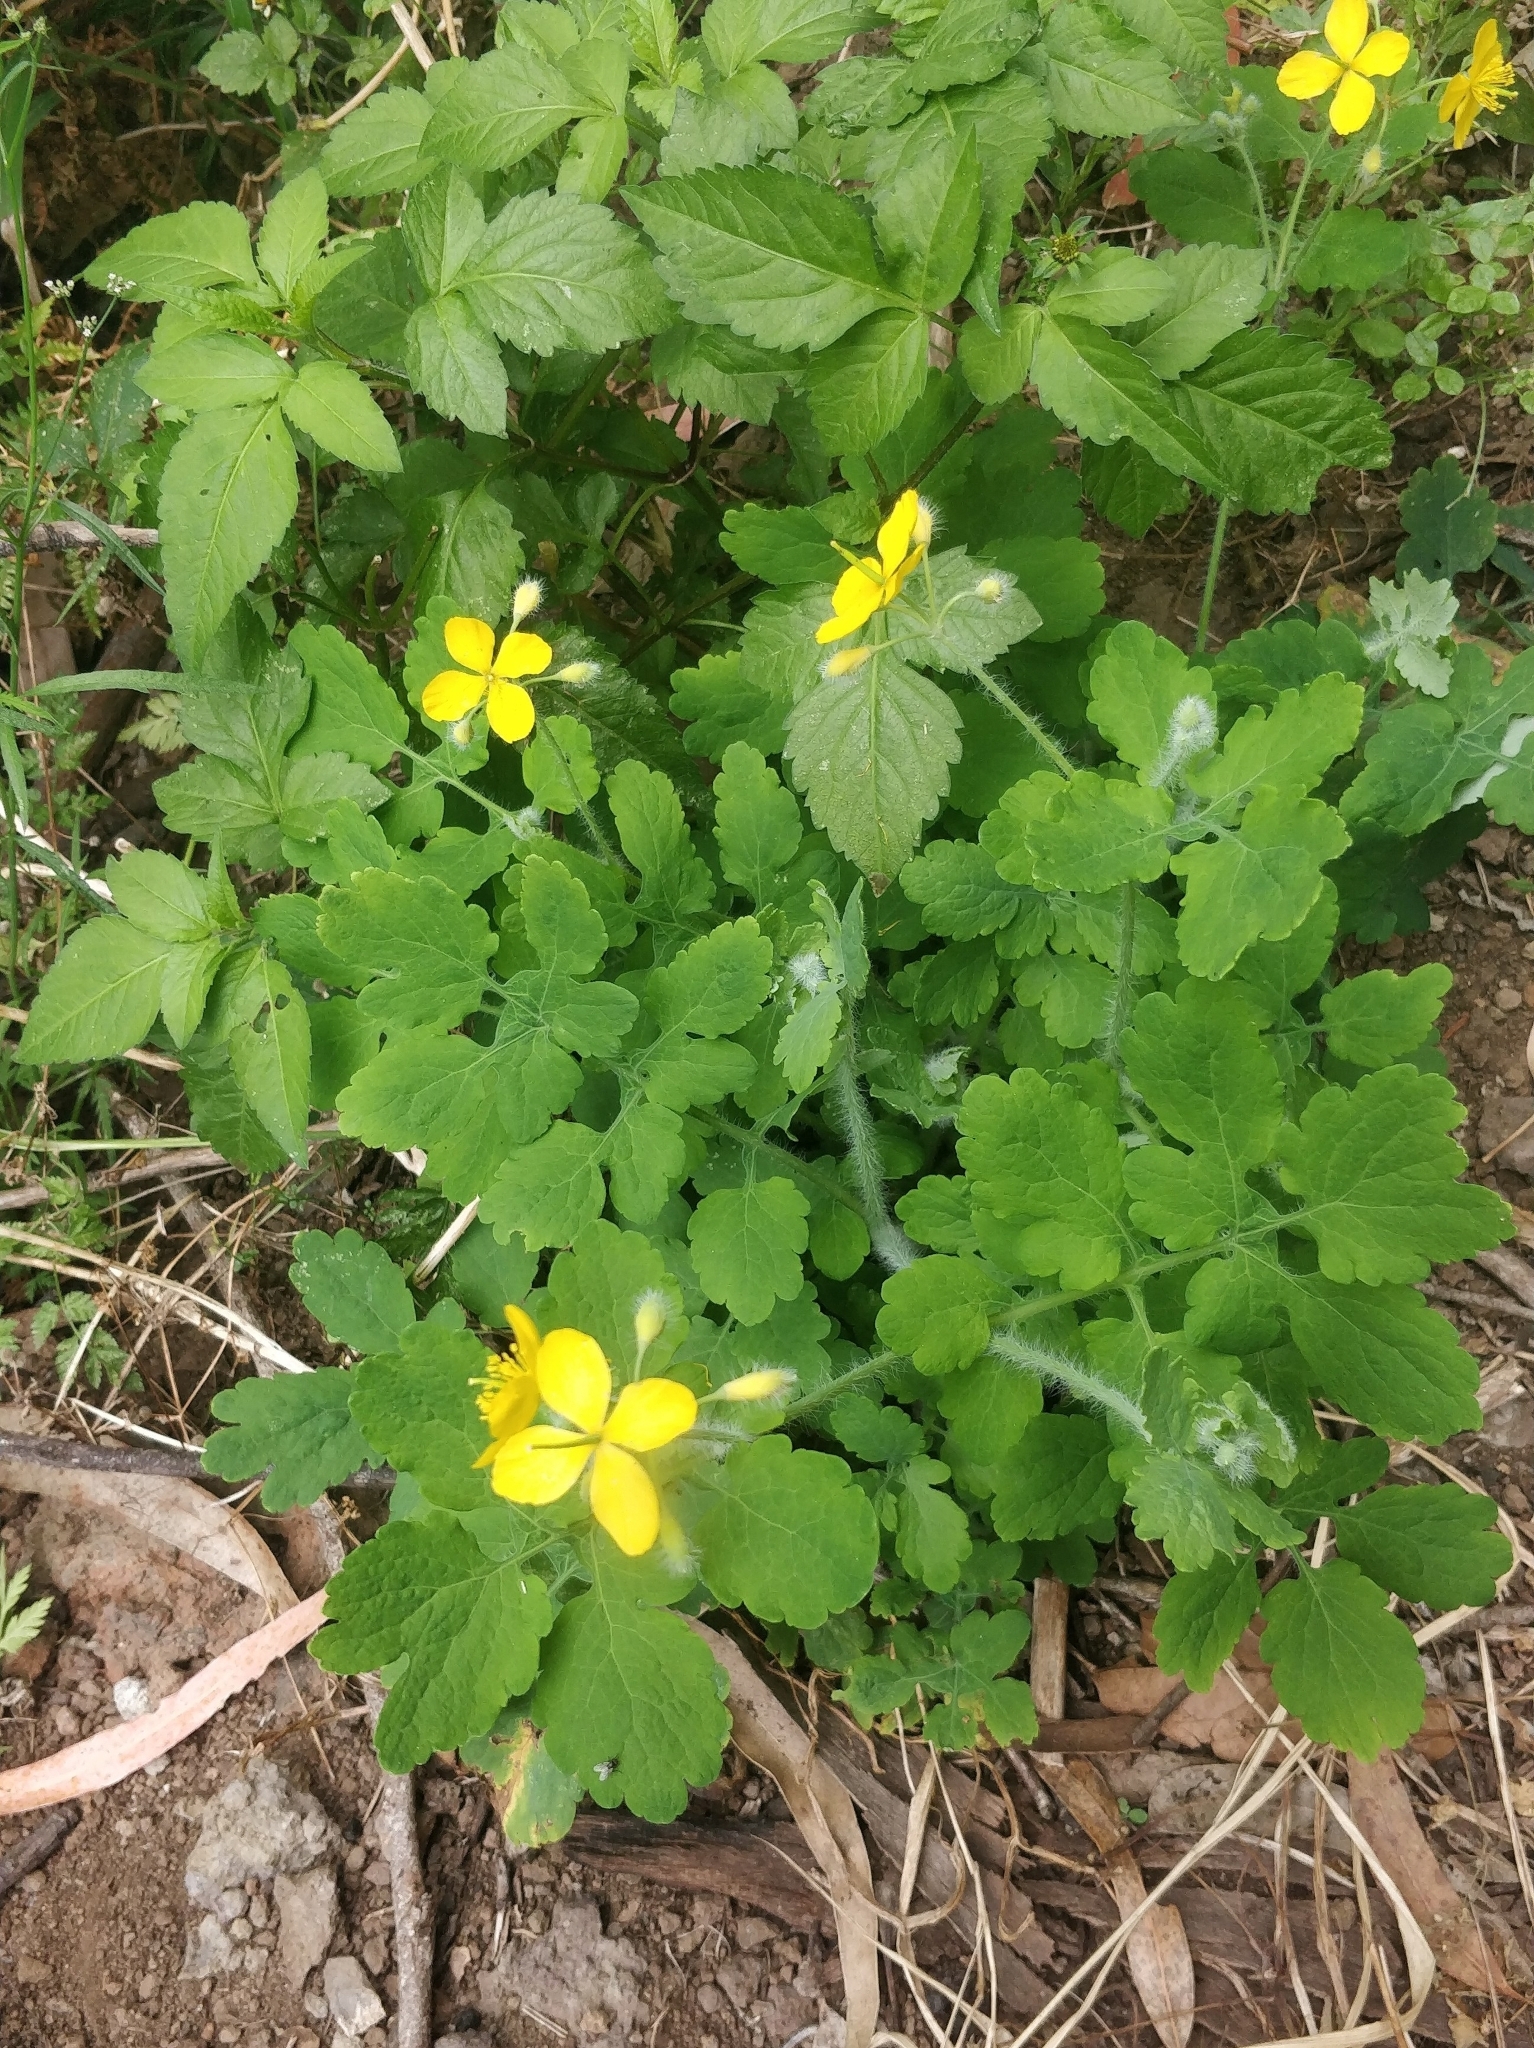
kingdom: Plantae
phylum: Tracheophyta
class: Magnoliopsida
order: Ranunculales
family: Papaveraceae
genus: Chelidonium
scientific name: Chelidonium majus
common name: Greater celandine
